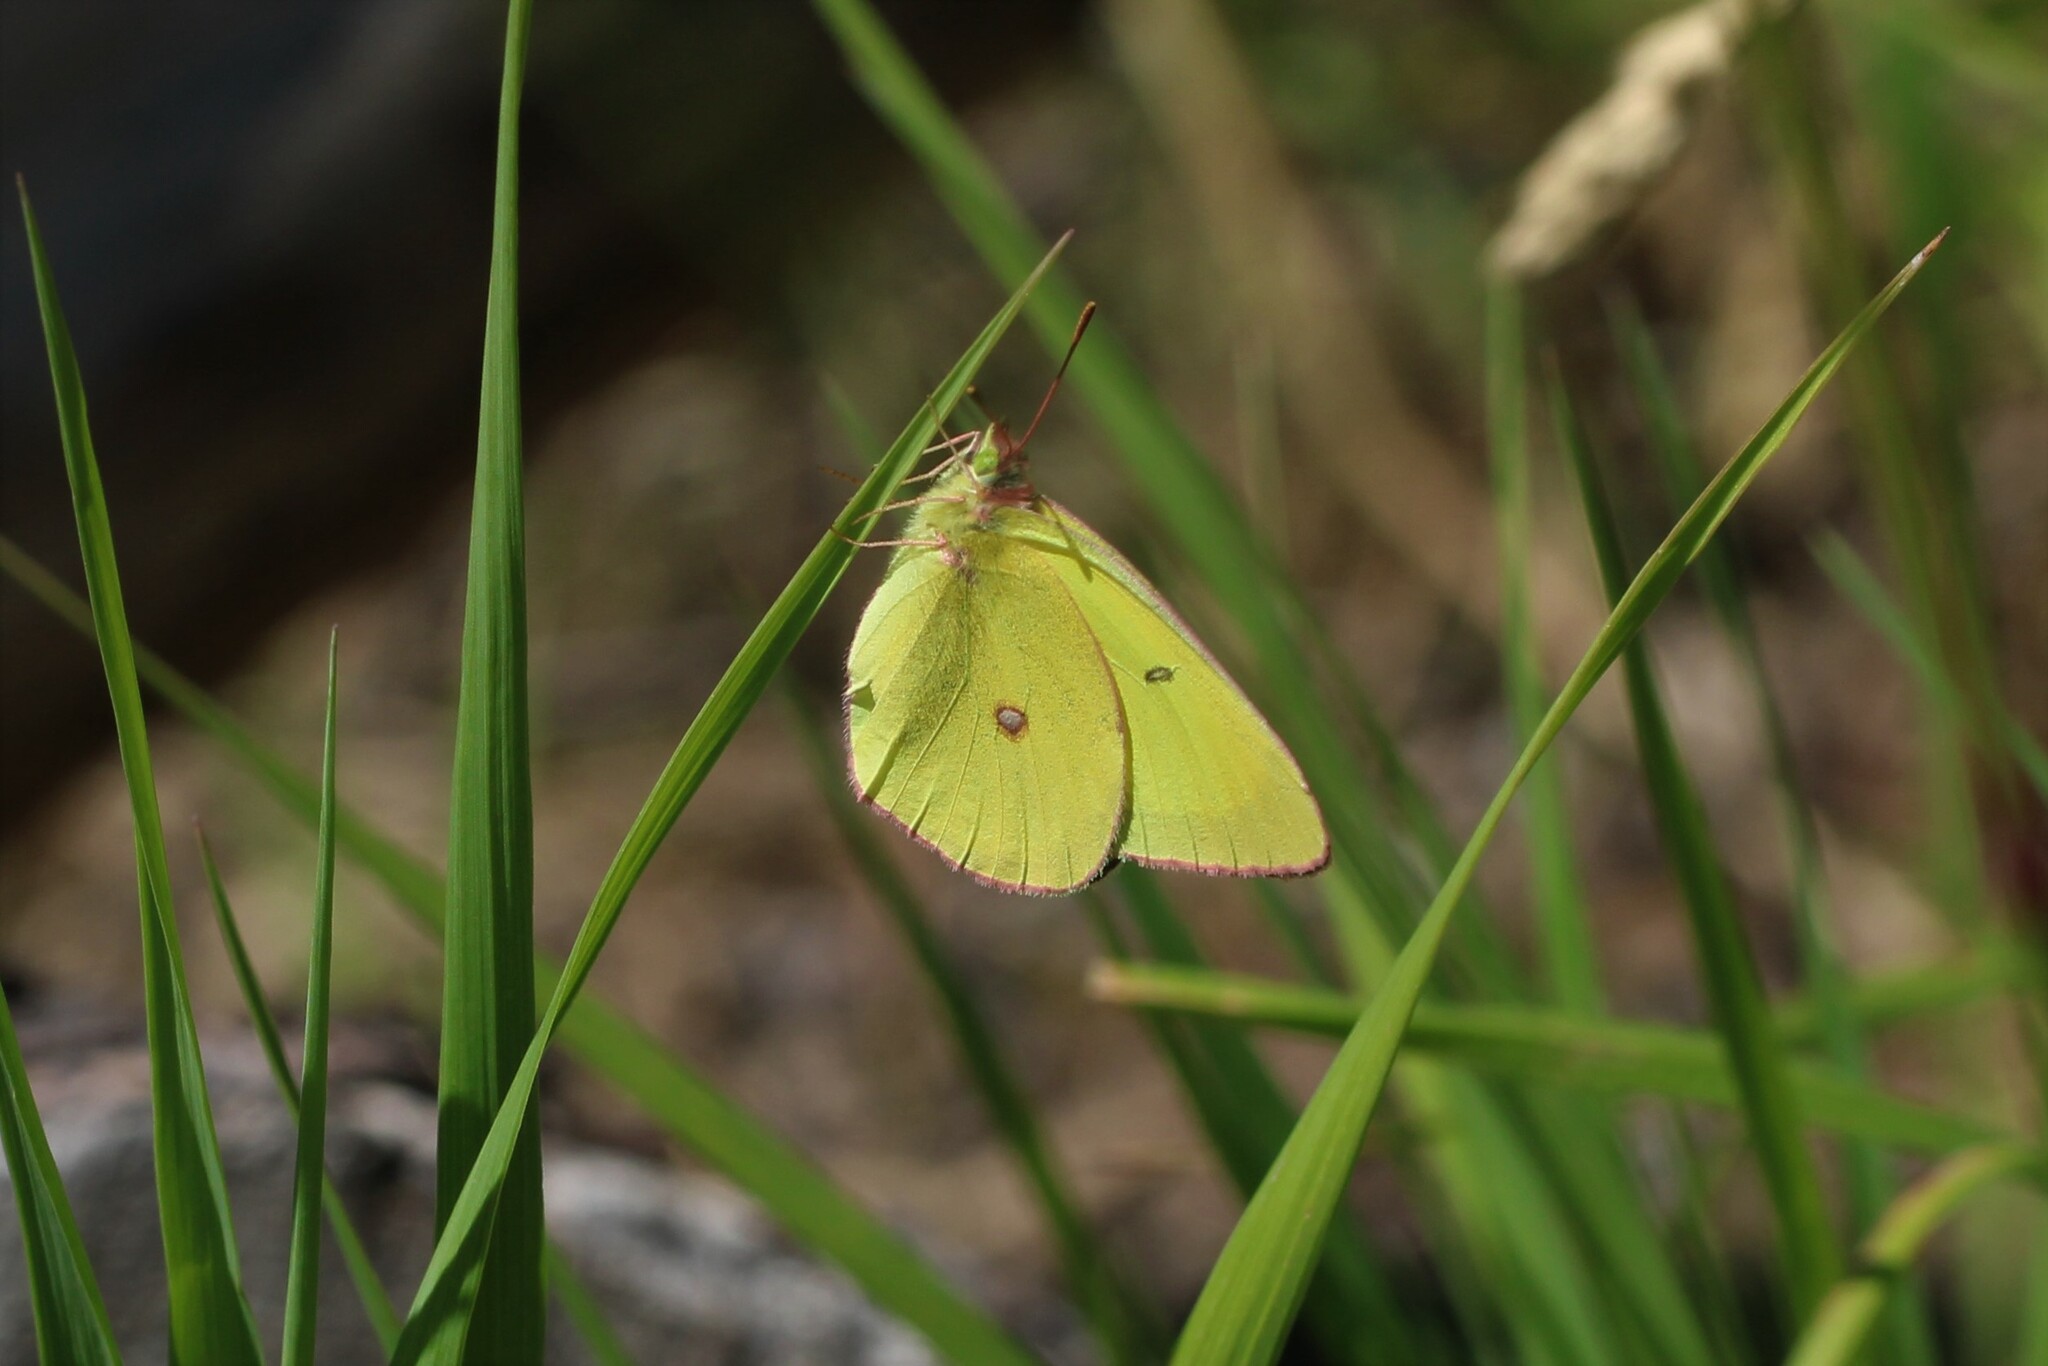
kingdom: Animalia
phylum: Arthropoda
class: Insecta
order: Lepidoptera
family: Pieridae
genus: Colias
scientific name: Colias interior
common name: Pink-edged sulphur
